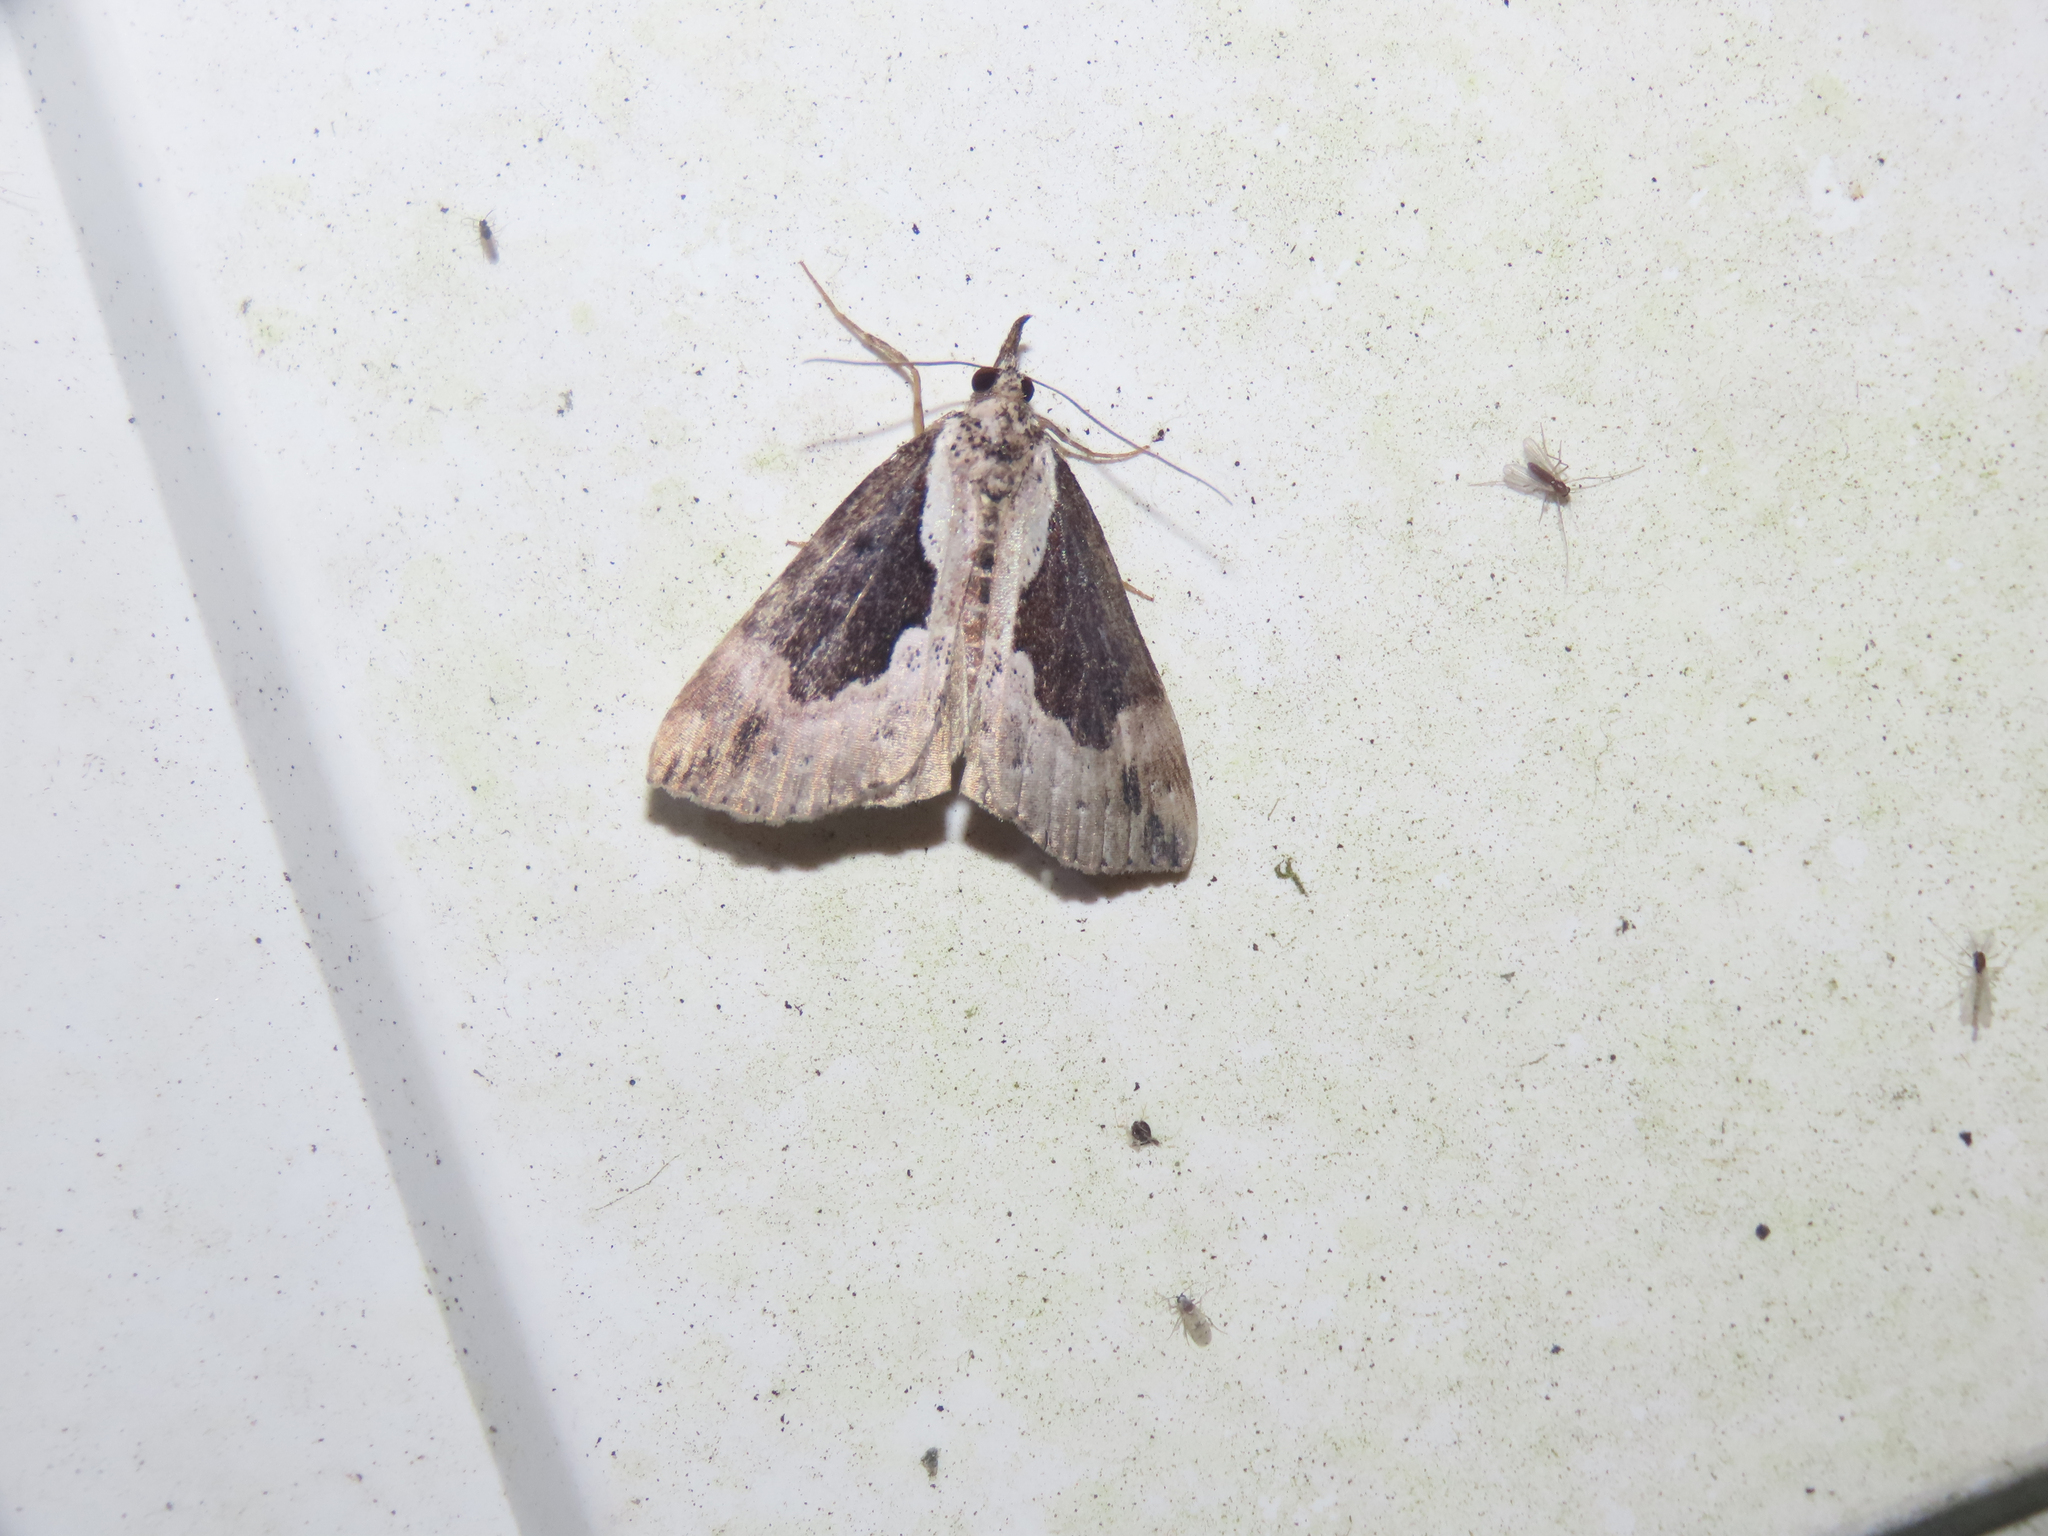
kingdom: Animalia
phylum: Arthropoda
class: Insecta
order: Lepidoptera
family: Erebidae
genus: Hypena
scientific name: Hypena baltimoralis
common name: Baltimore snout
